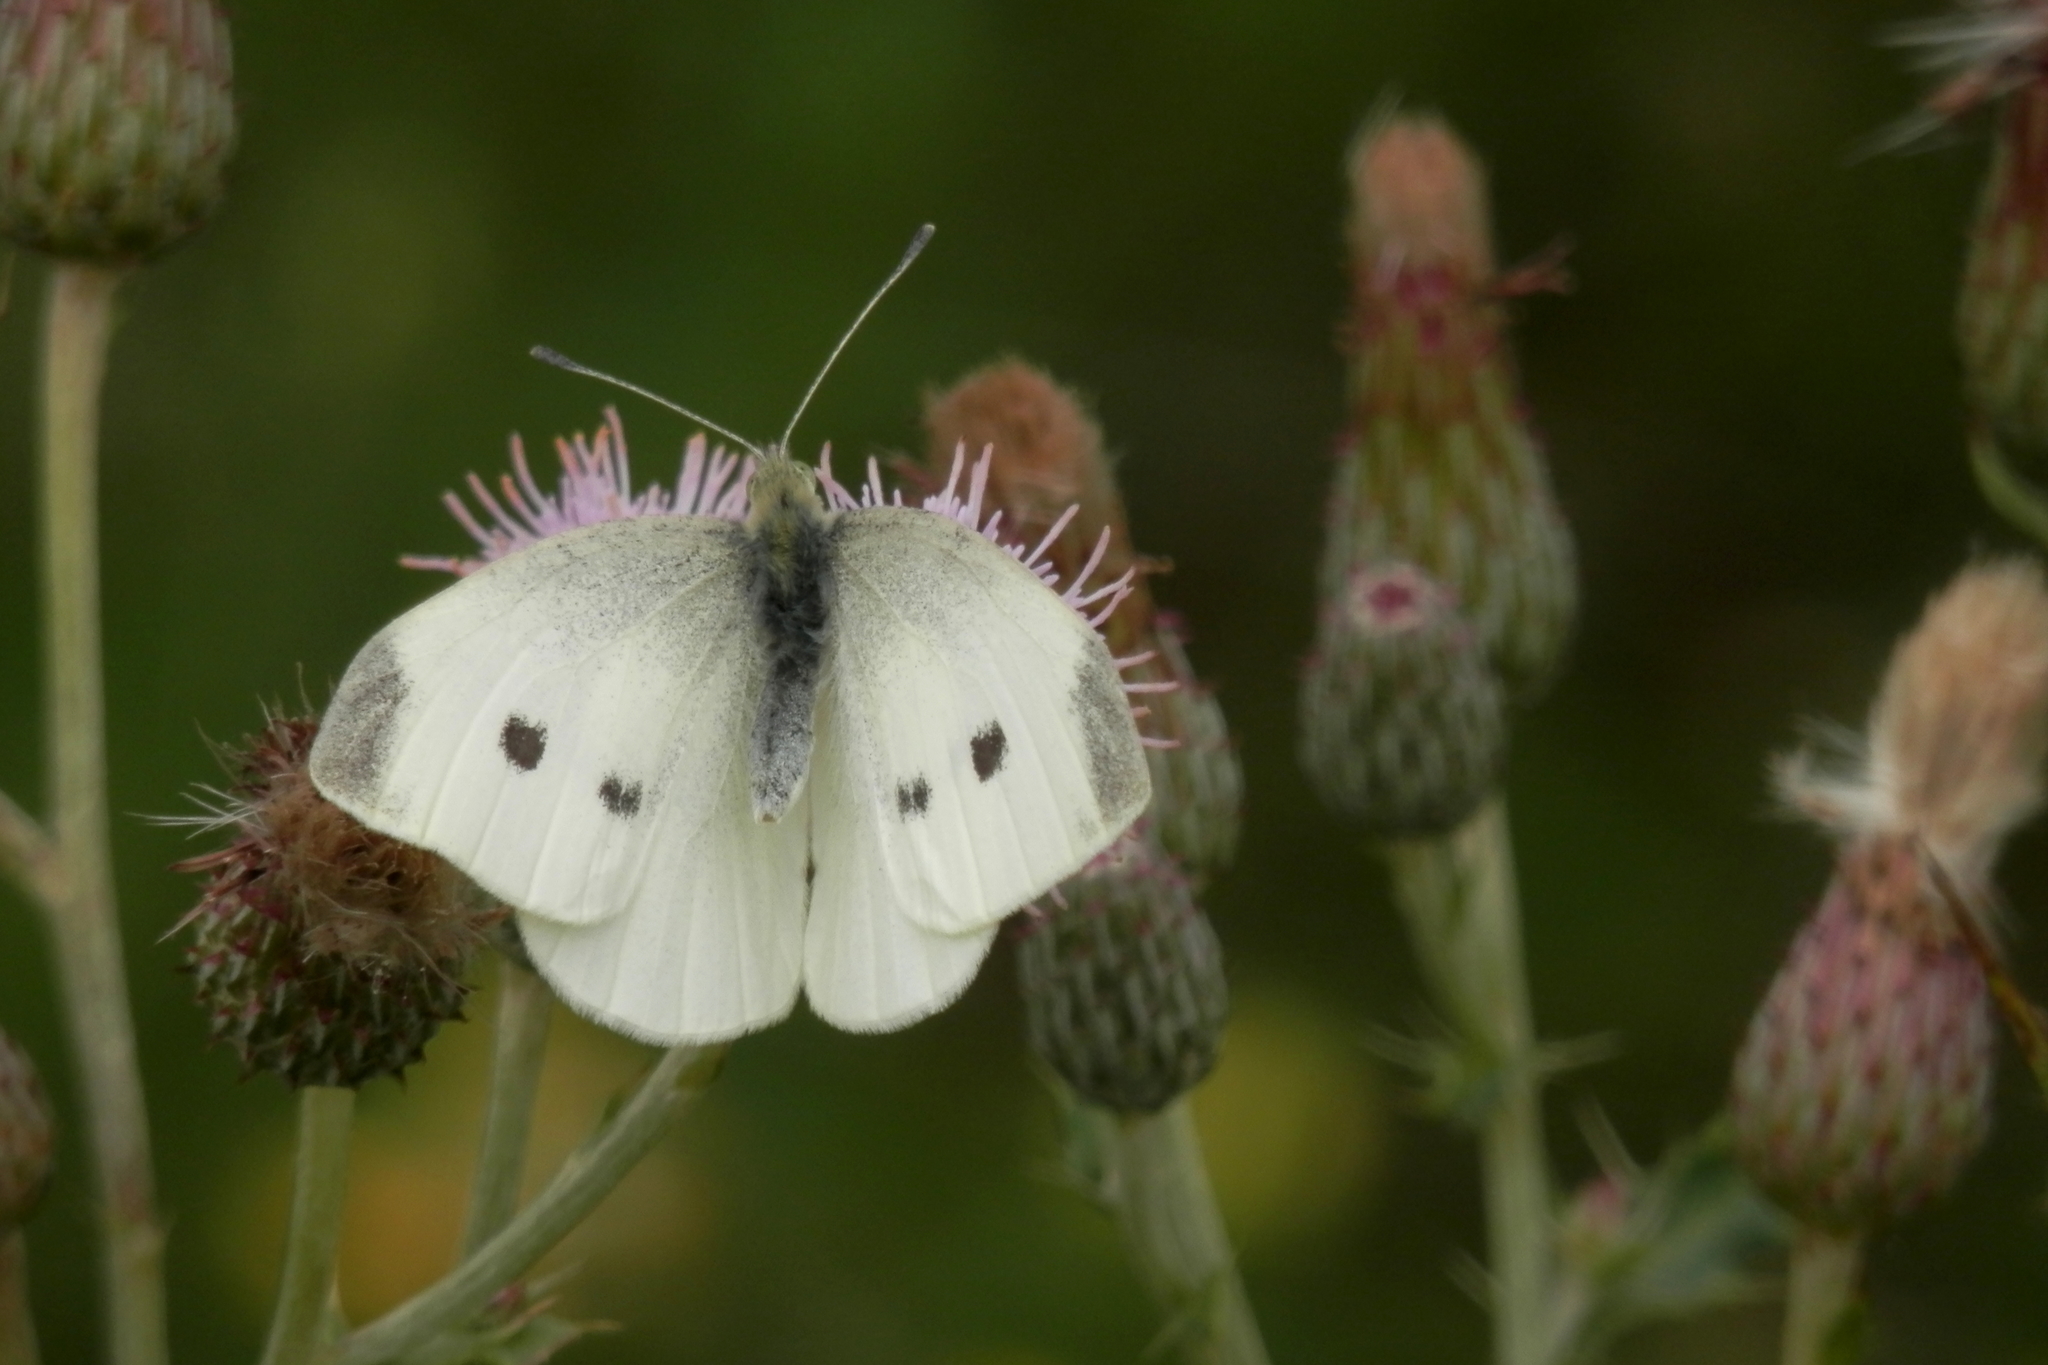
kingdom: Plantae
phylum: Tracheophyta
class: Magnoliopsida
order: Asterales
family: Asteraceae
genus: Cirsium
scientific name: Cirsium arvense
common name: Creeping thistle
